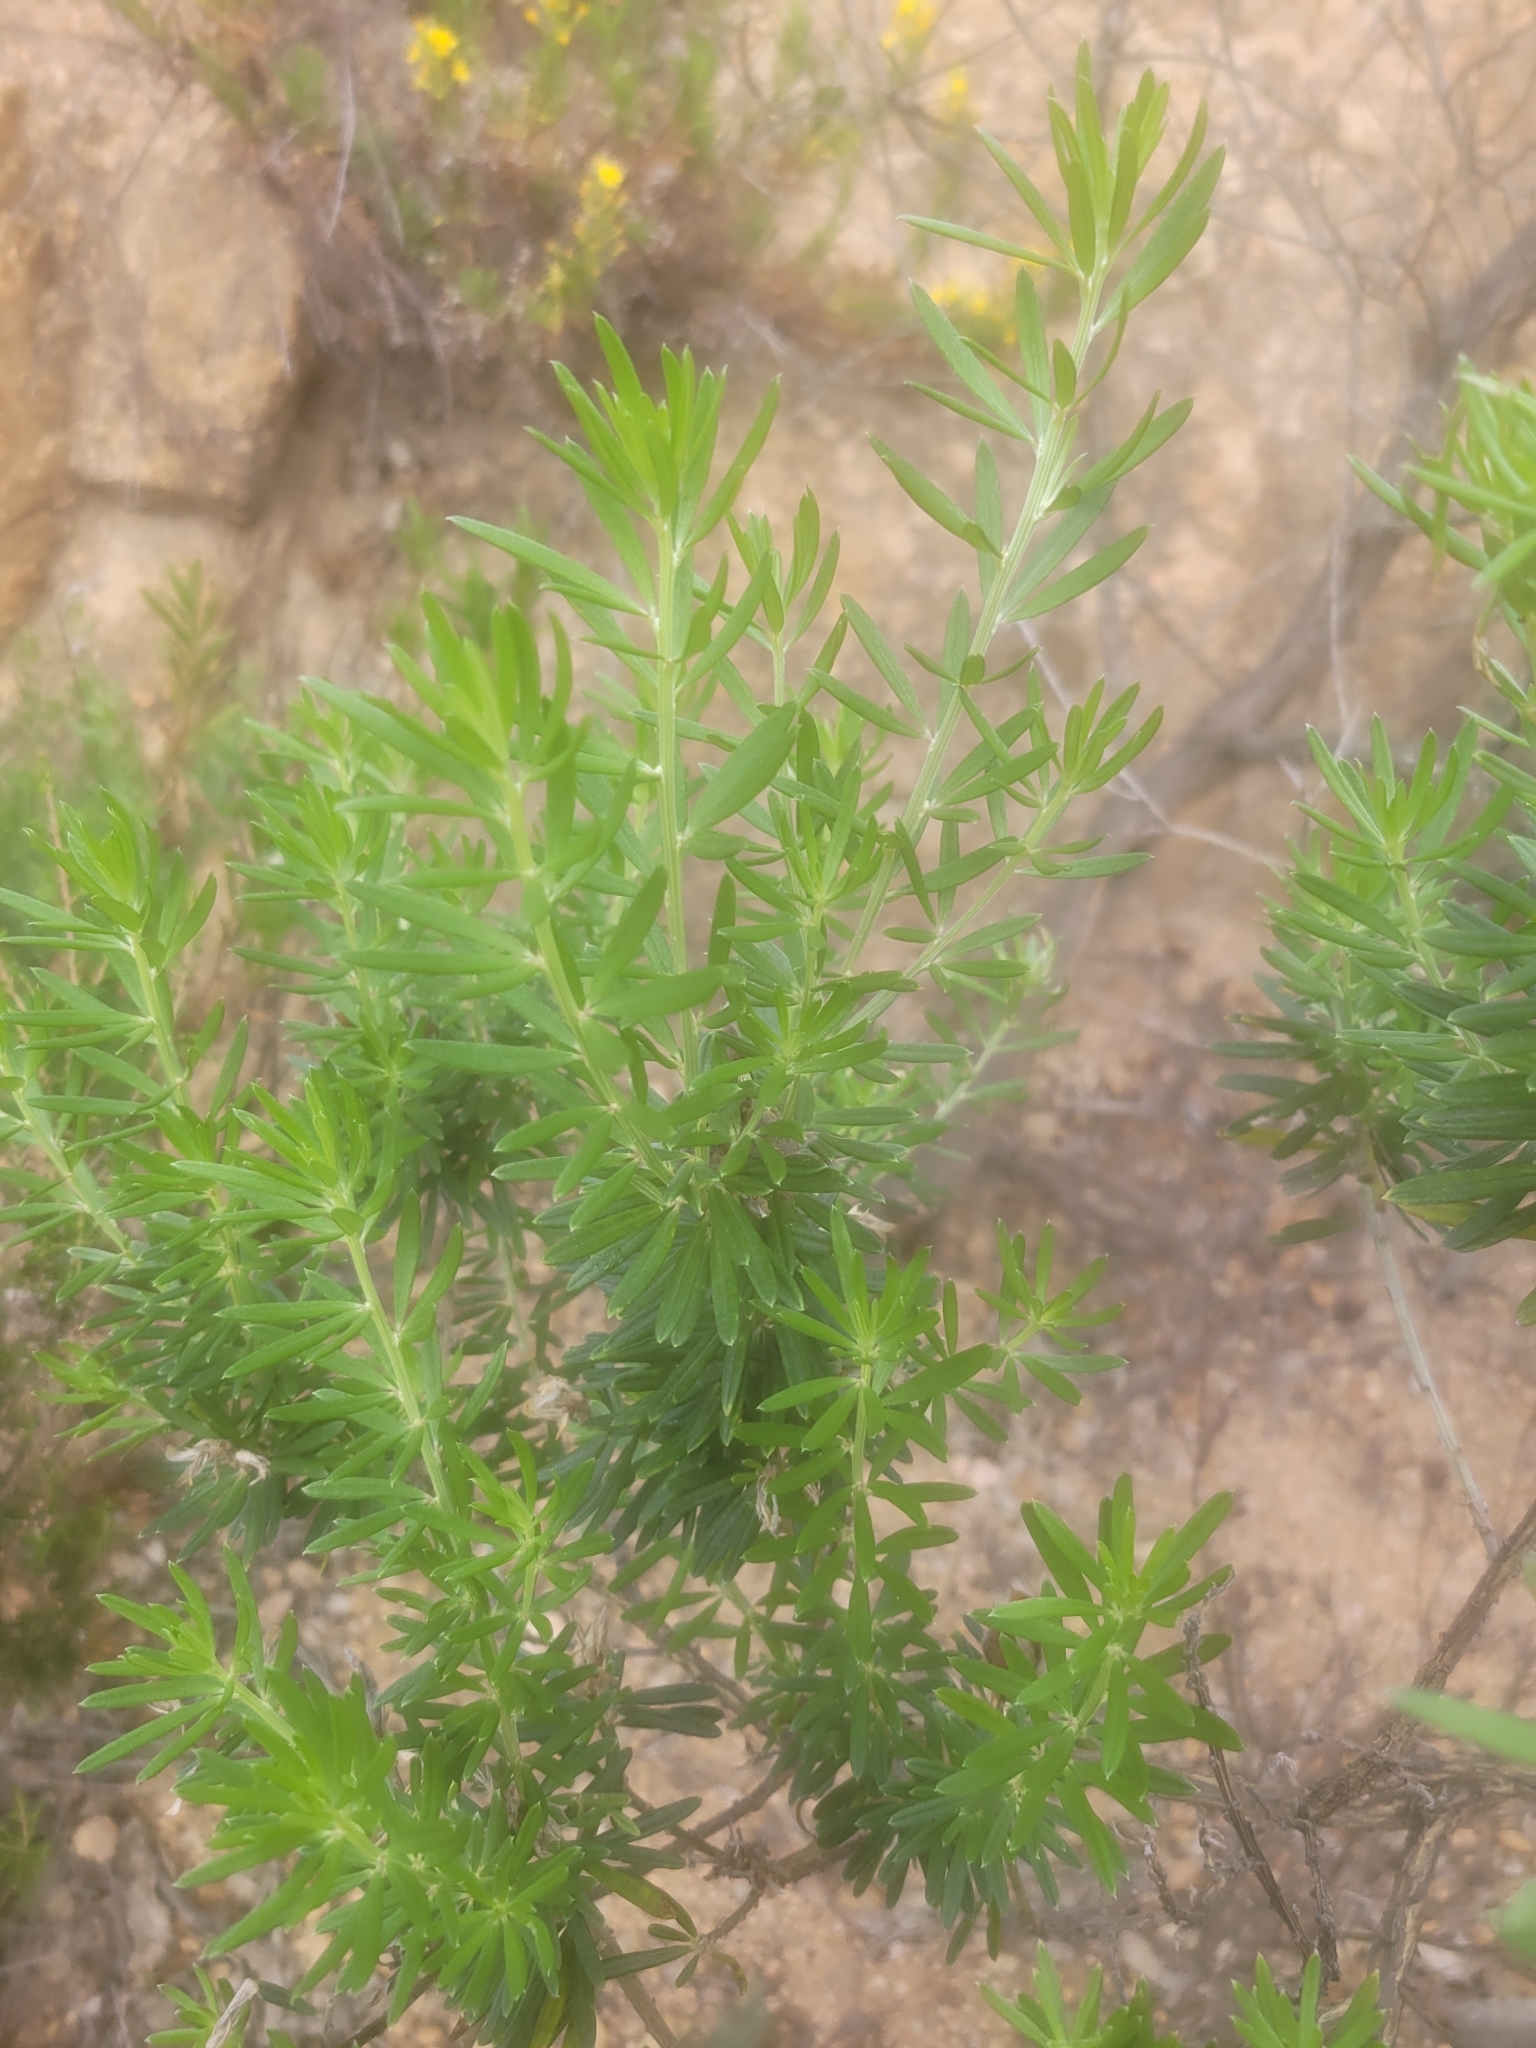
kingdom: Plantae
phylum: Tracheophyta
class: Magnoliopsida
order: Fabales
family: Fabaceae
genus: Genista
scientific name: Genista linifolia
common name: Mediterranean broom
